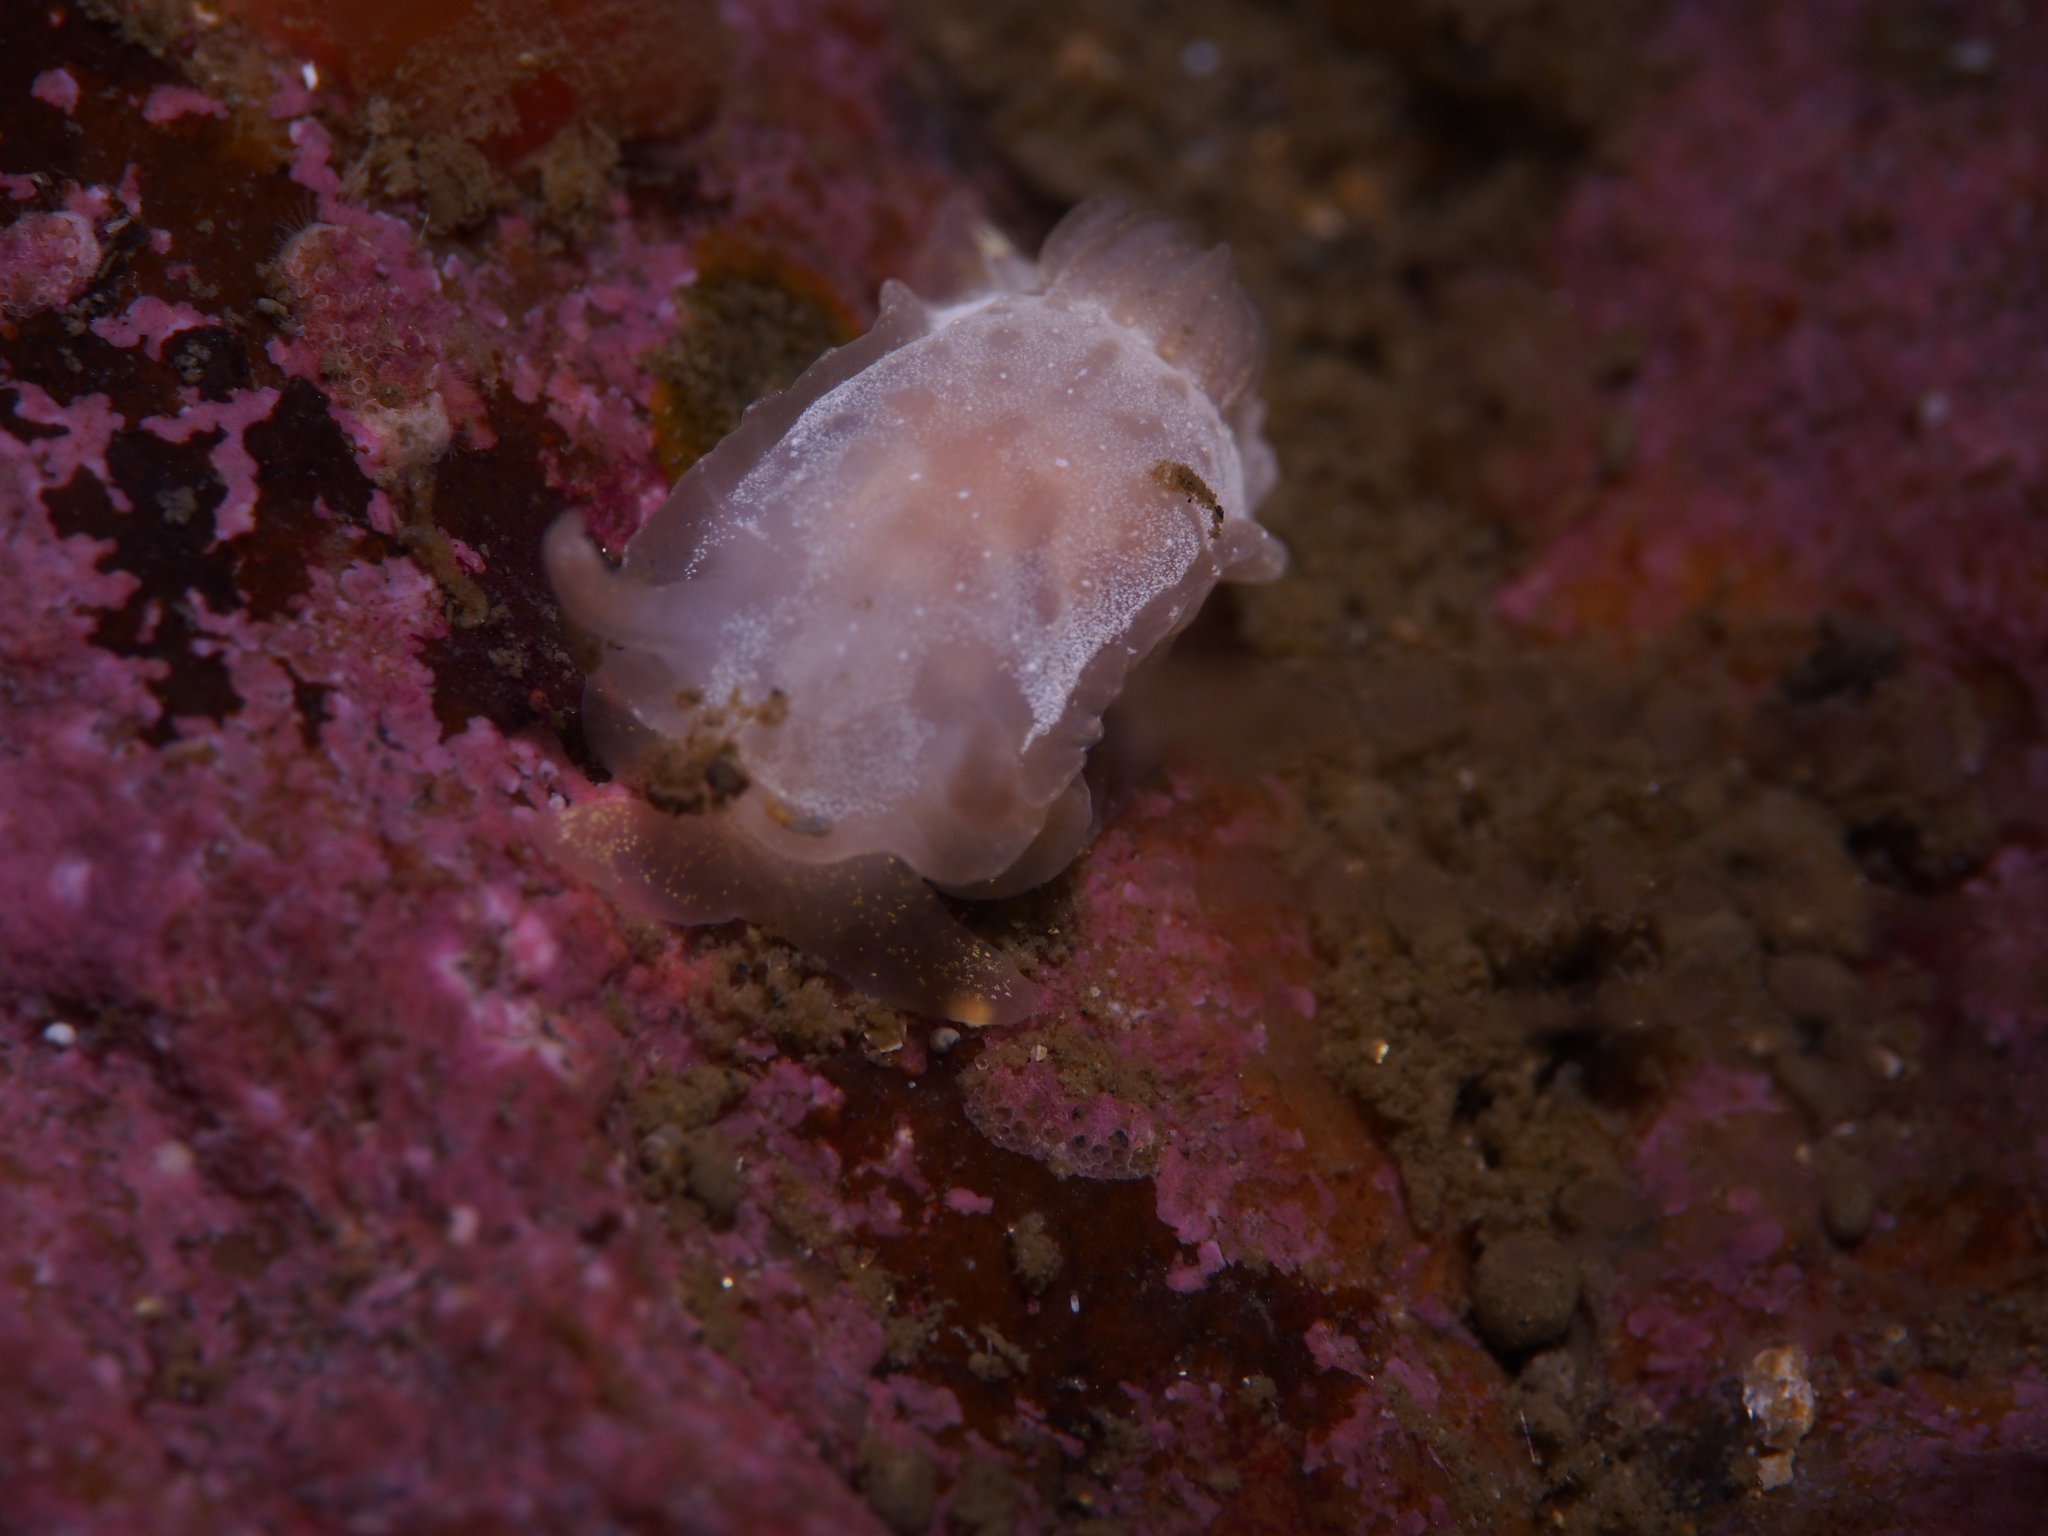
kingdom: Animalia
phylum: Mollusca
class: Gastropoda
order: Nudibranchia
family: Goniodorididae
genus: Okenia
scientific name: Okenia
